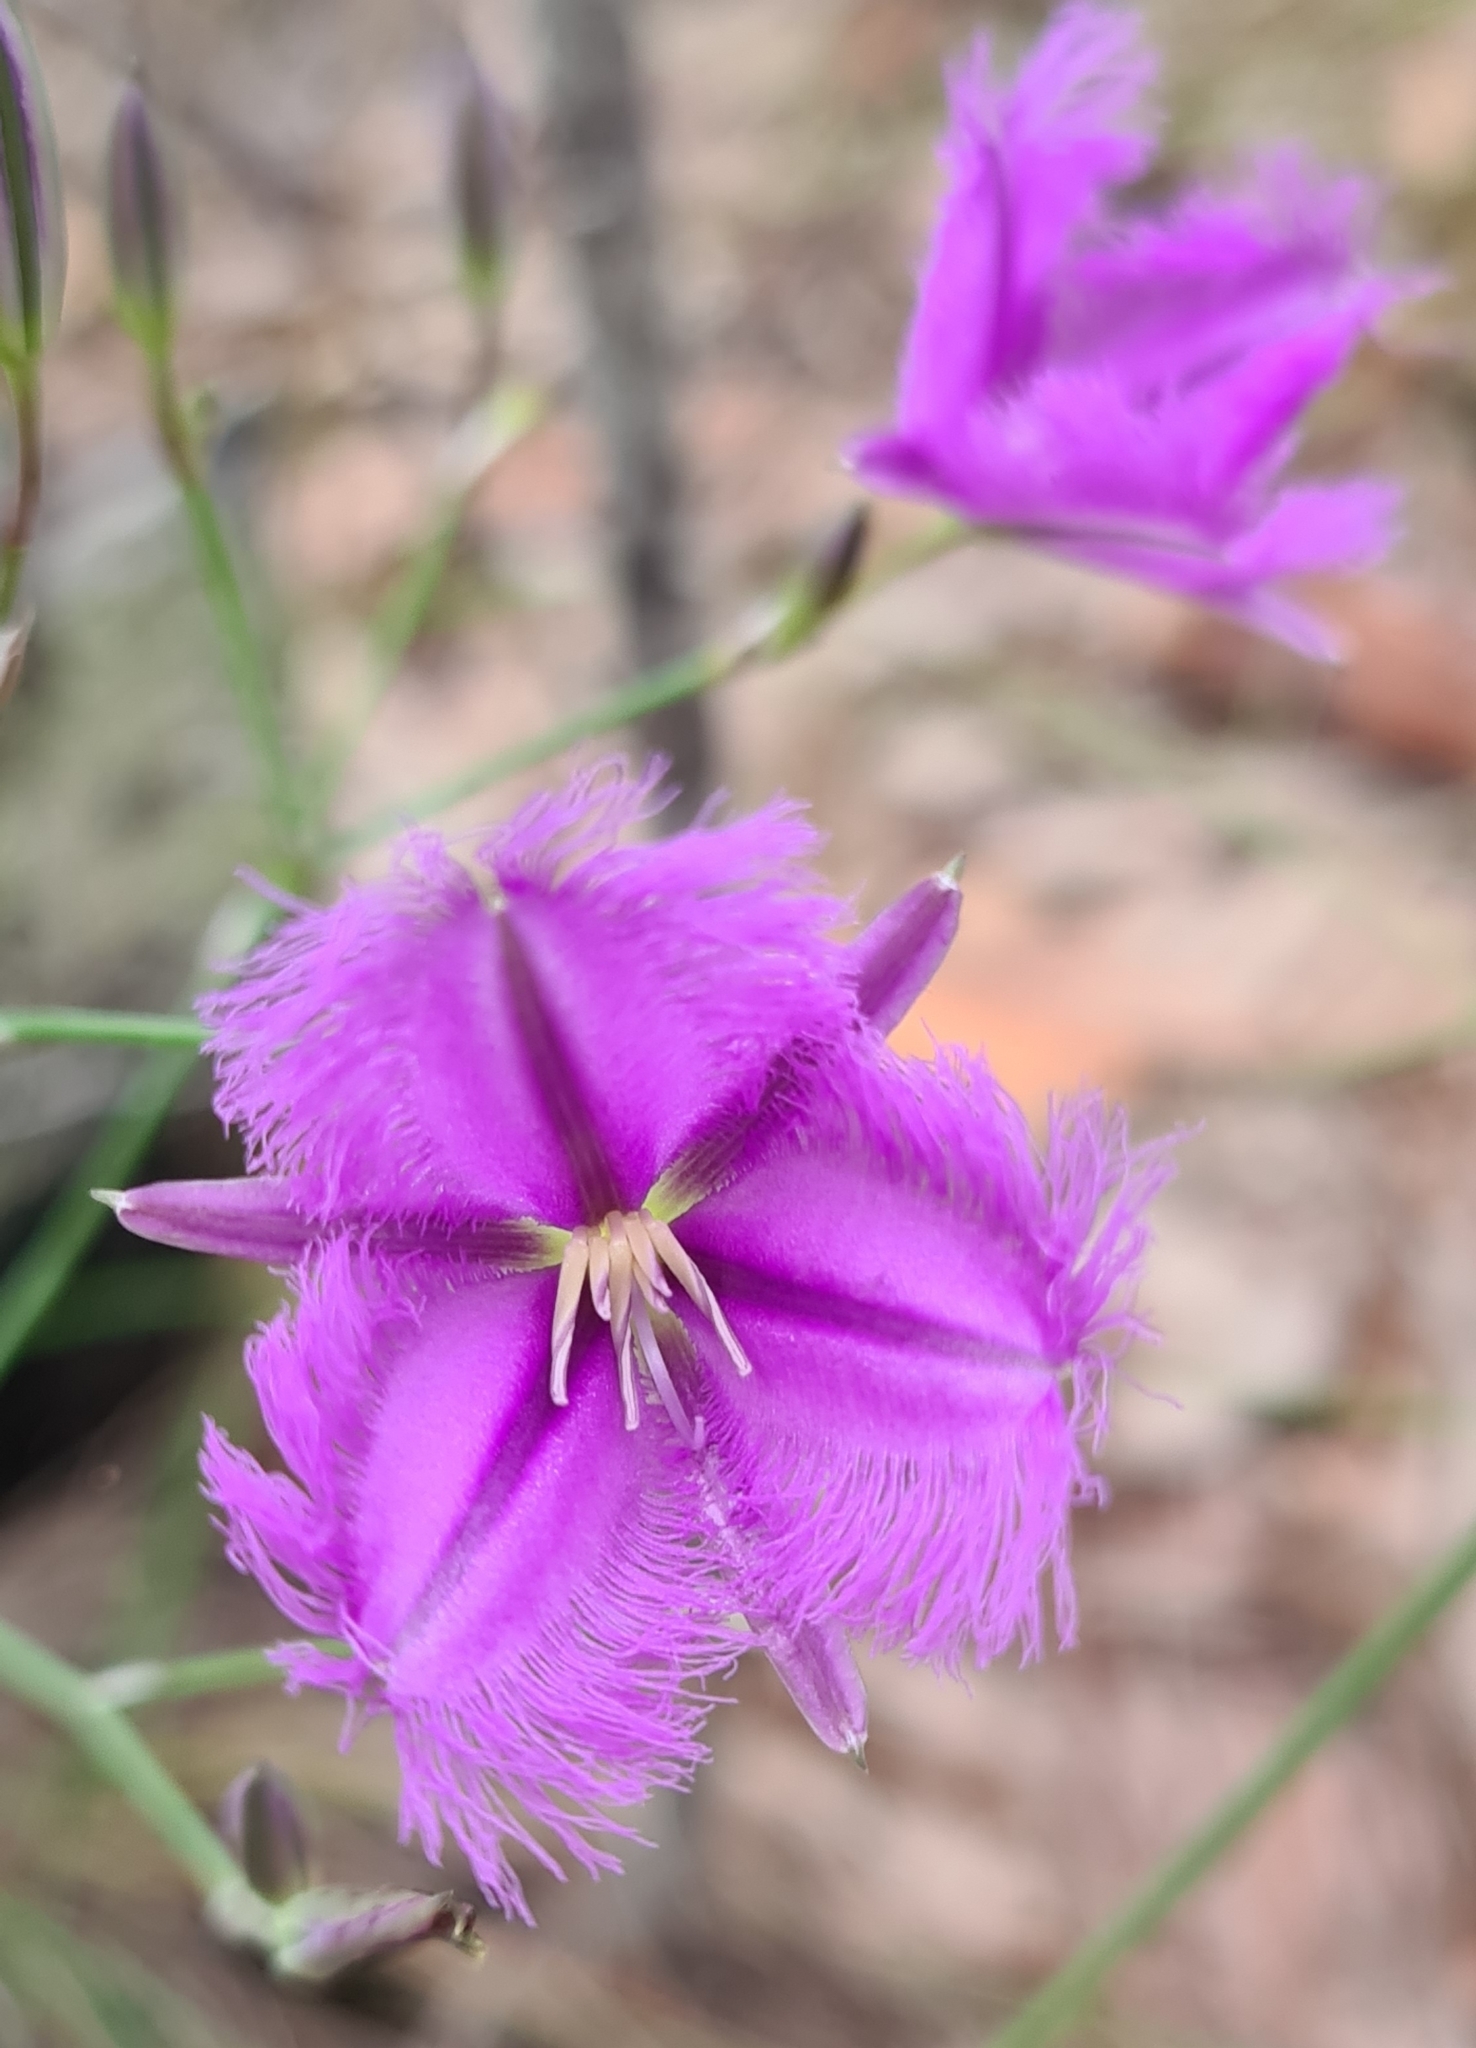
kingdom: Plantae
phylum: Tracheophyta
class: Liliopsida
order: Asparagales
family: Asparagaceae
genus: Thysanotus
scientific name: Thysanotus tuberosus
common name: Common fringed-lily
